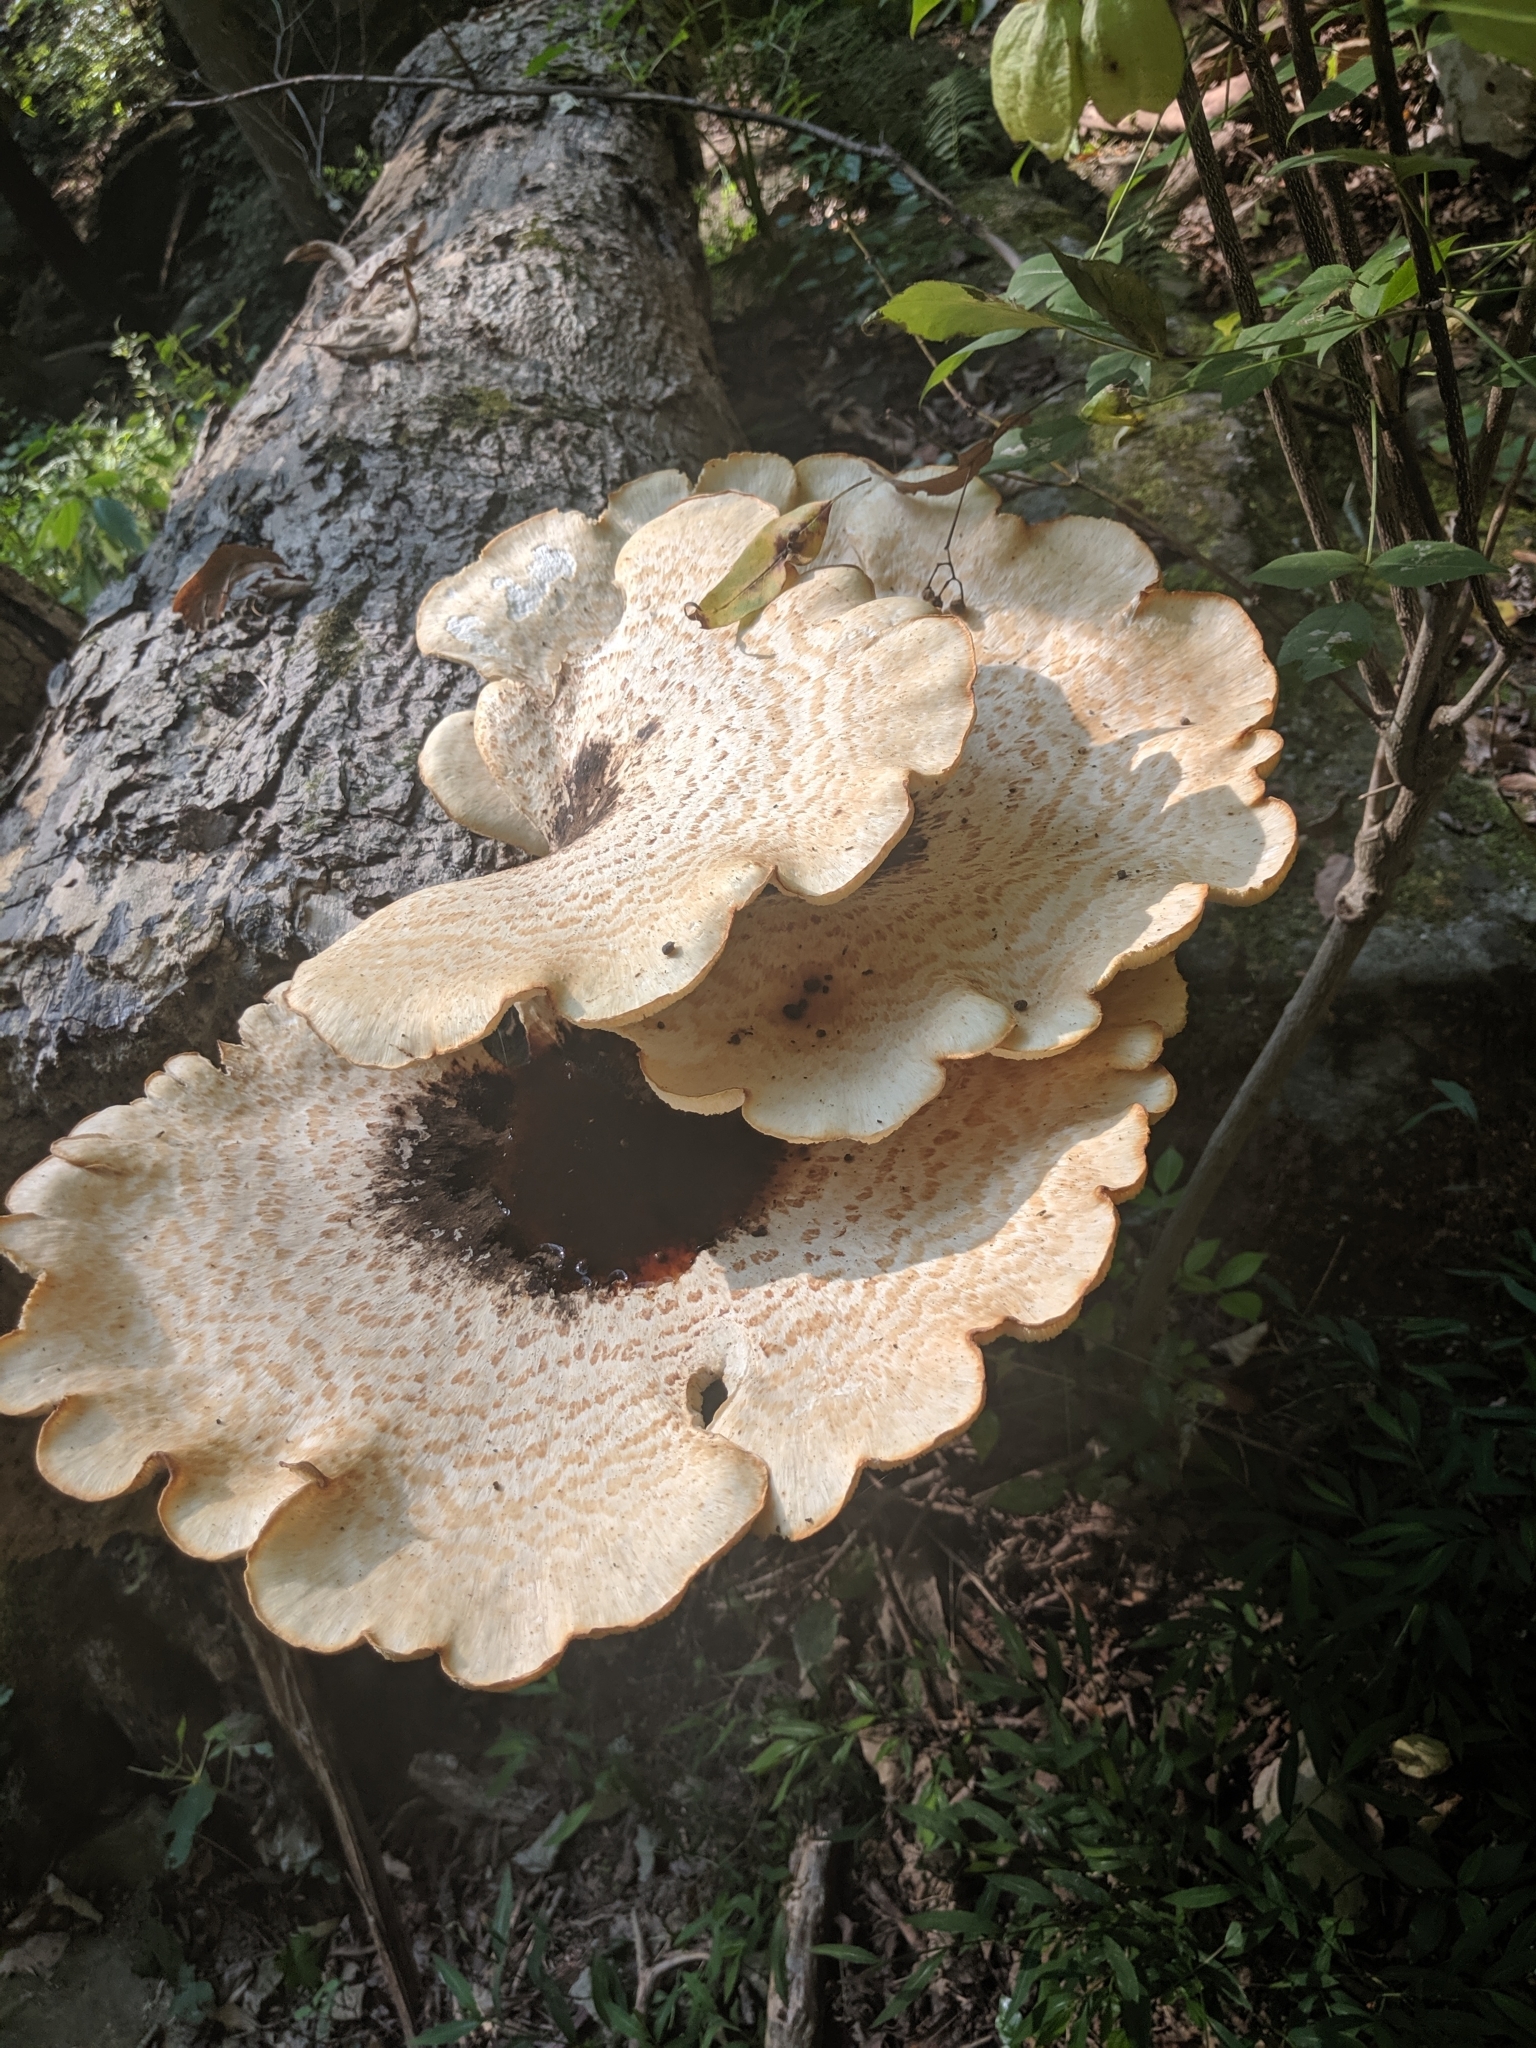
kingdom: Fungi
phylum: Basidiomycota
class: Agaricomycetes
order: Polyporales
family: Polyporaceae
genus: Cerioporus
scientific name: Cerioporus squamosus
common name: Dryad's saddle
